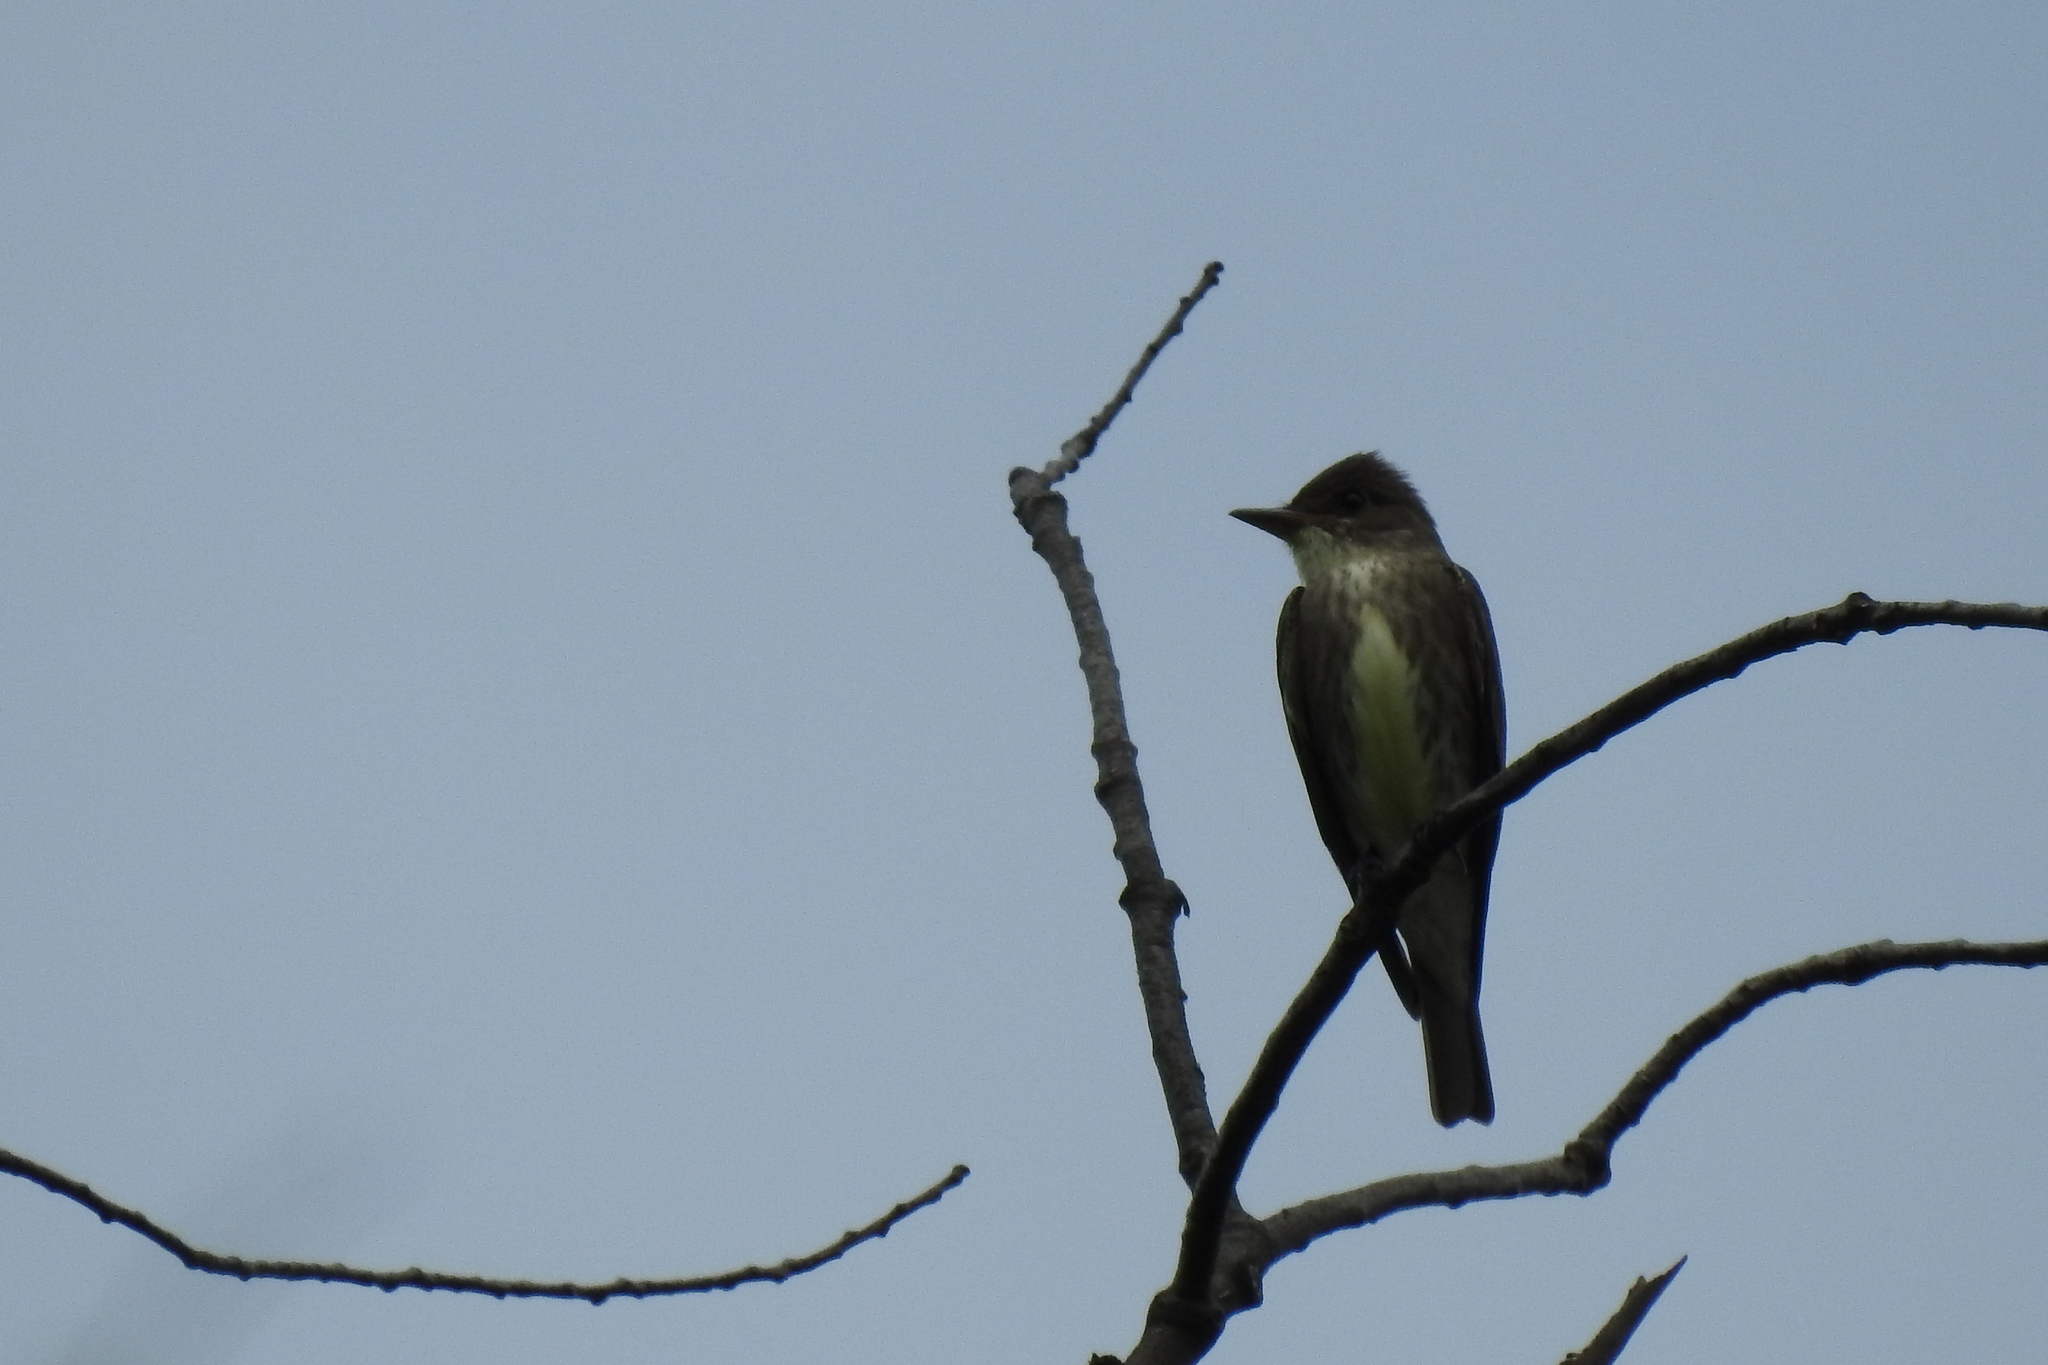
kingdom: Animalia
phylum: Chordata
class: Aves
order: Passeriformes
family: Tyrannidae
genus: Contopus
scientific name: Contopus cooperi
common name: Olive-sided flycatcher
